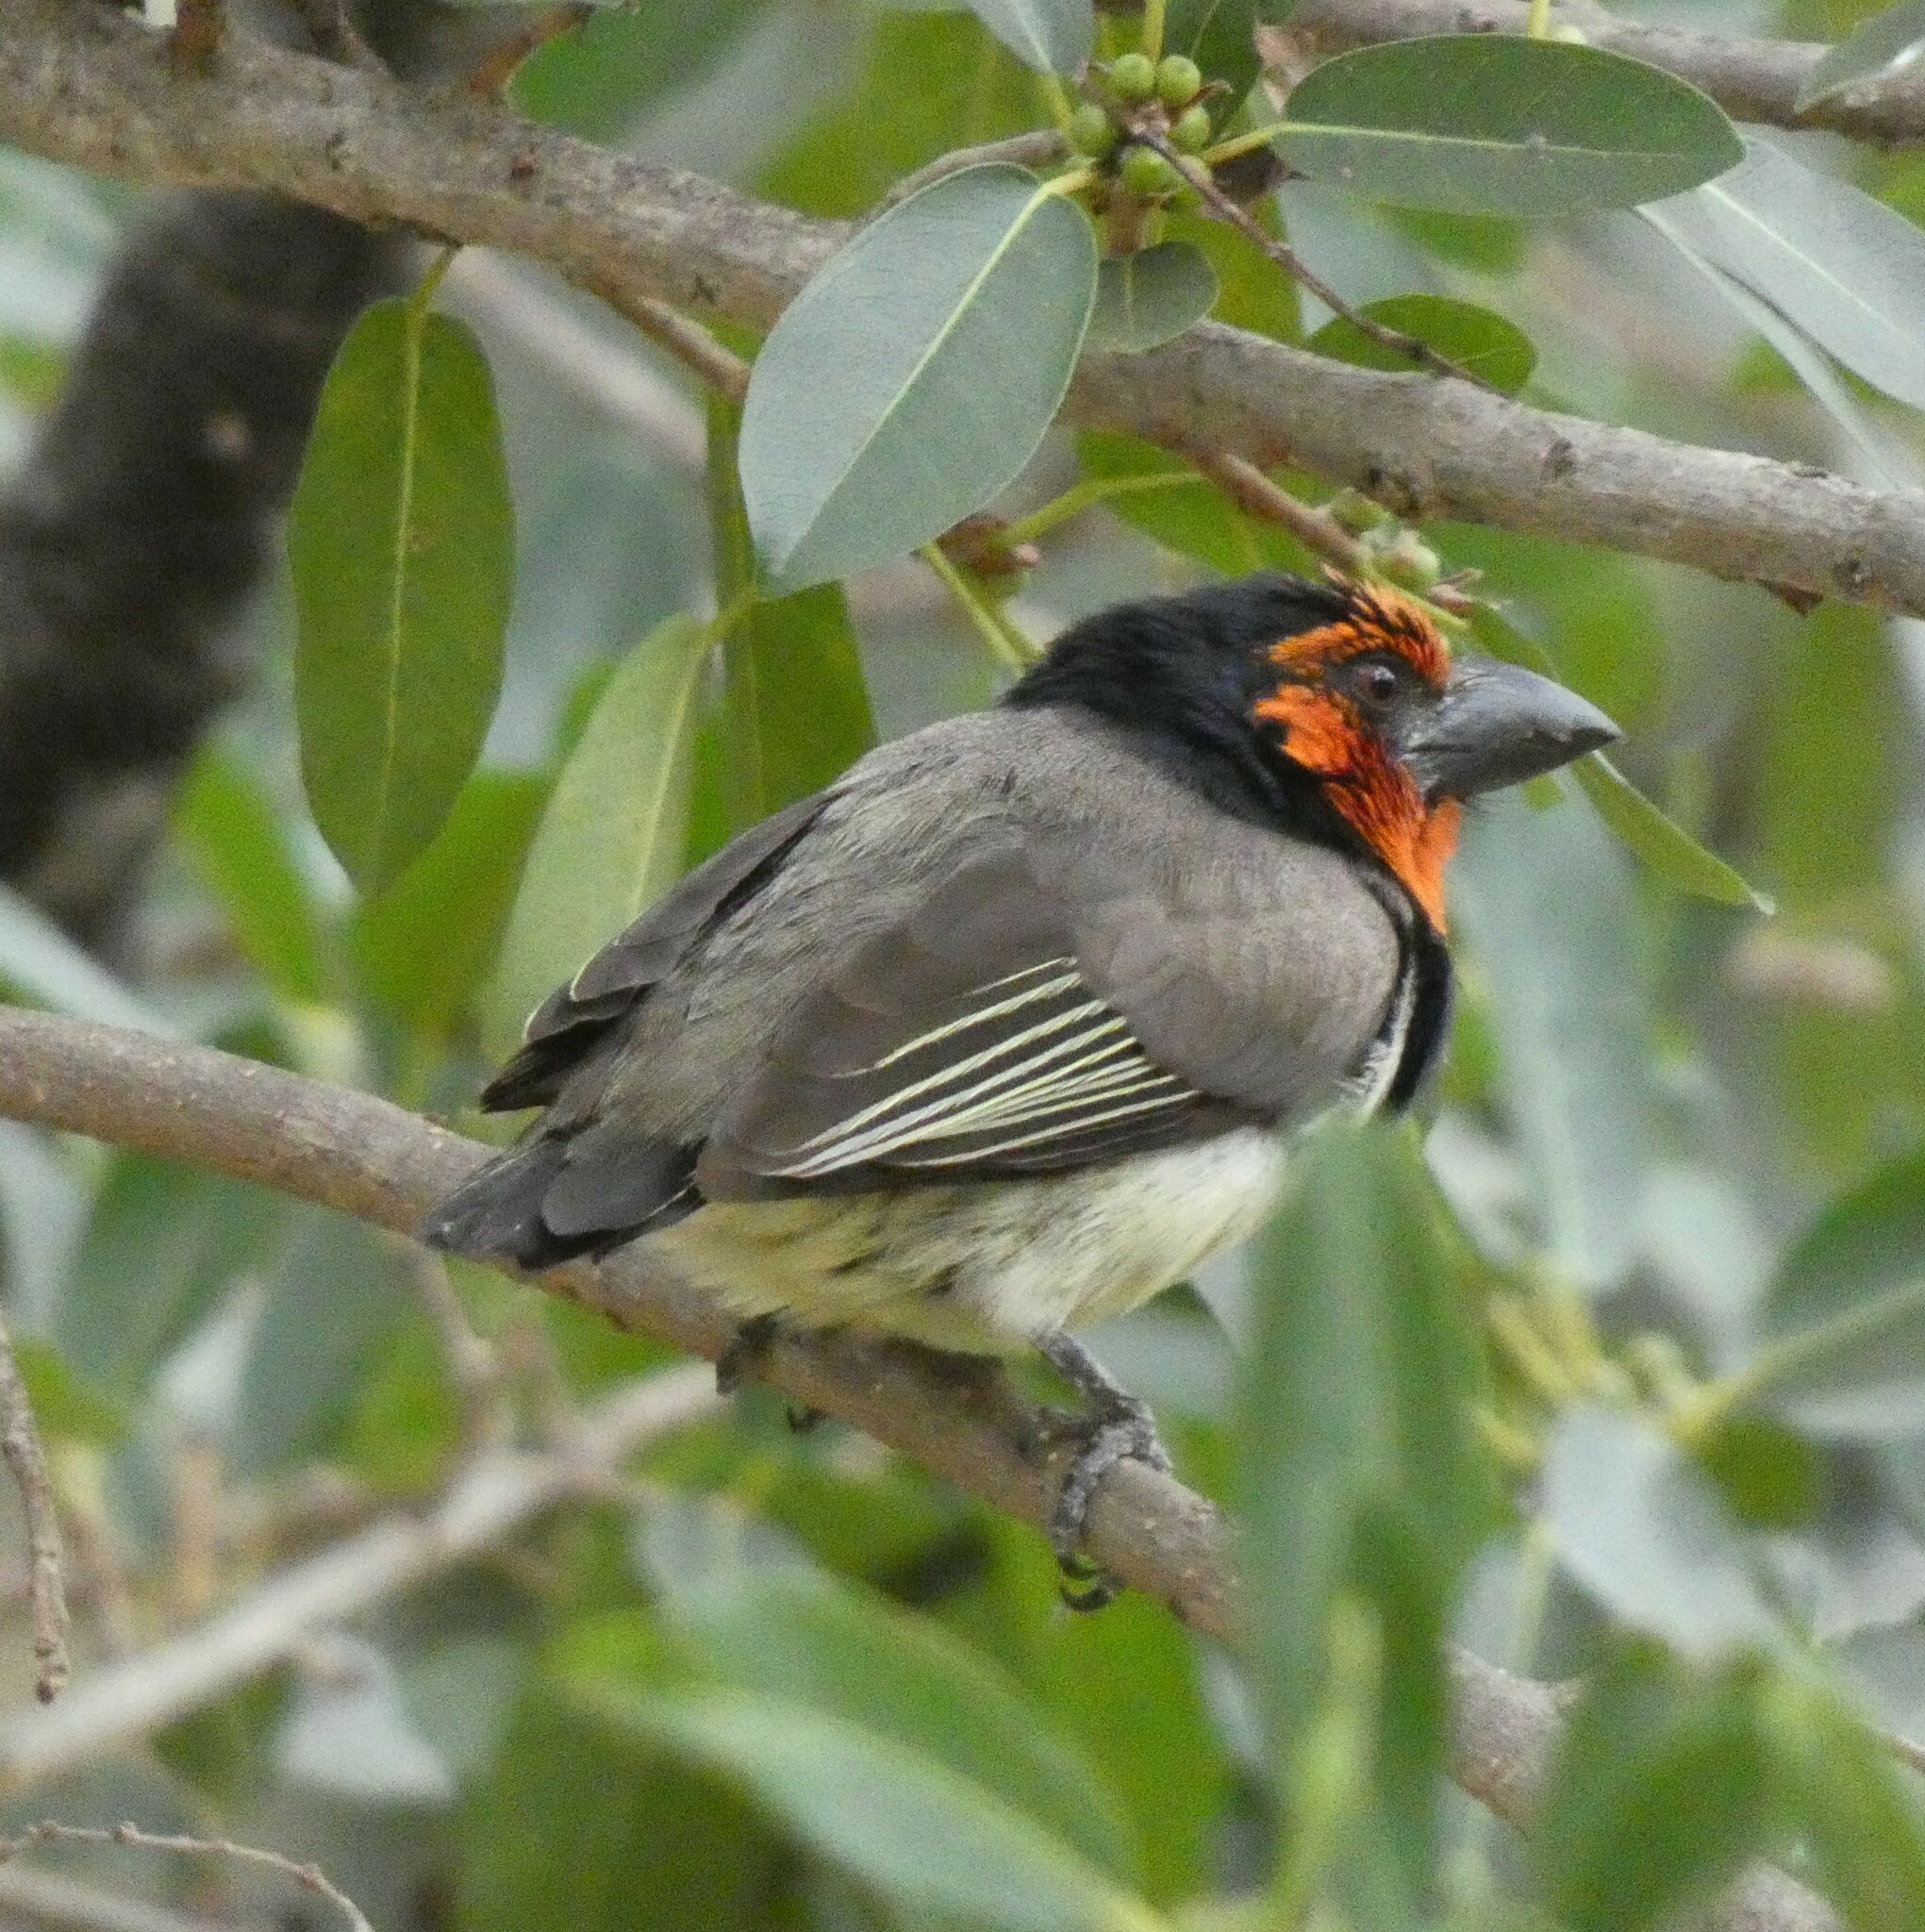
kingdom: Animalia
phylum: Chordata
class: Aves
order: Piciformes
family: Lybiidae
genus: Lybius
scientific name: Lybius torquatus
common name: Black-collared barbet
